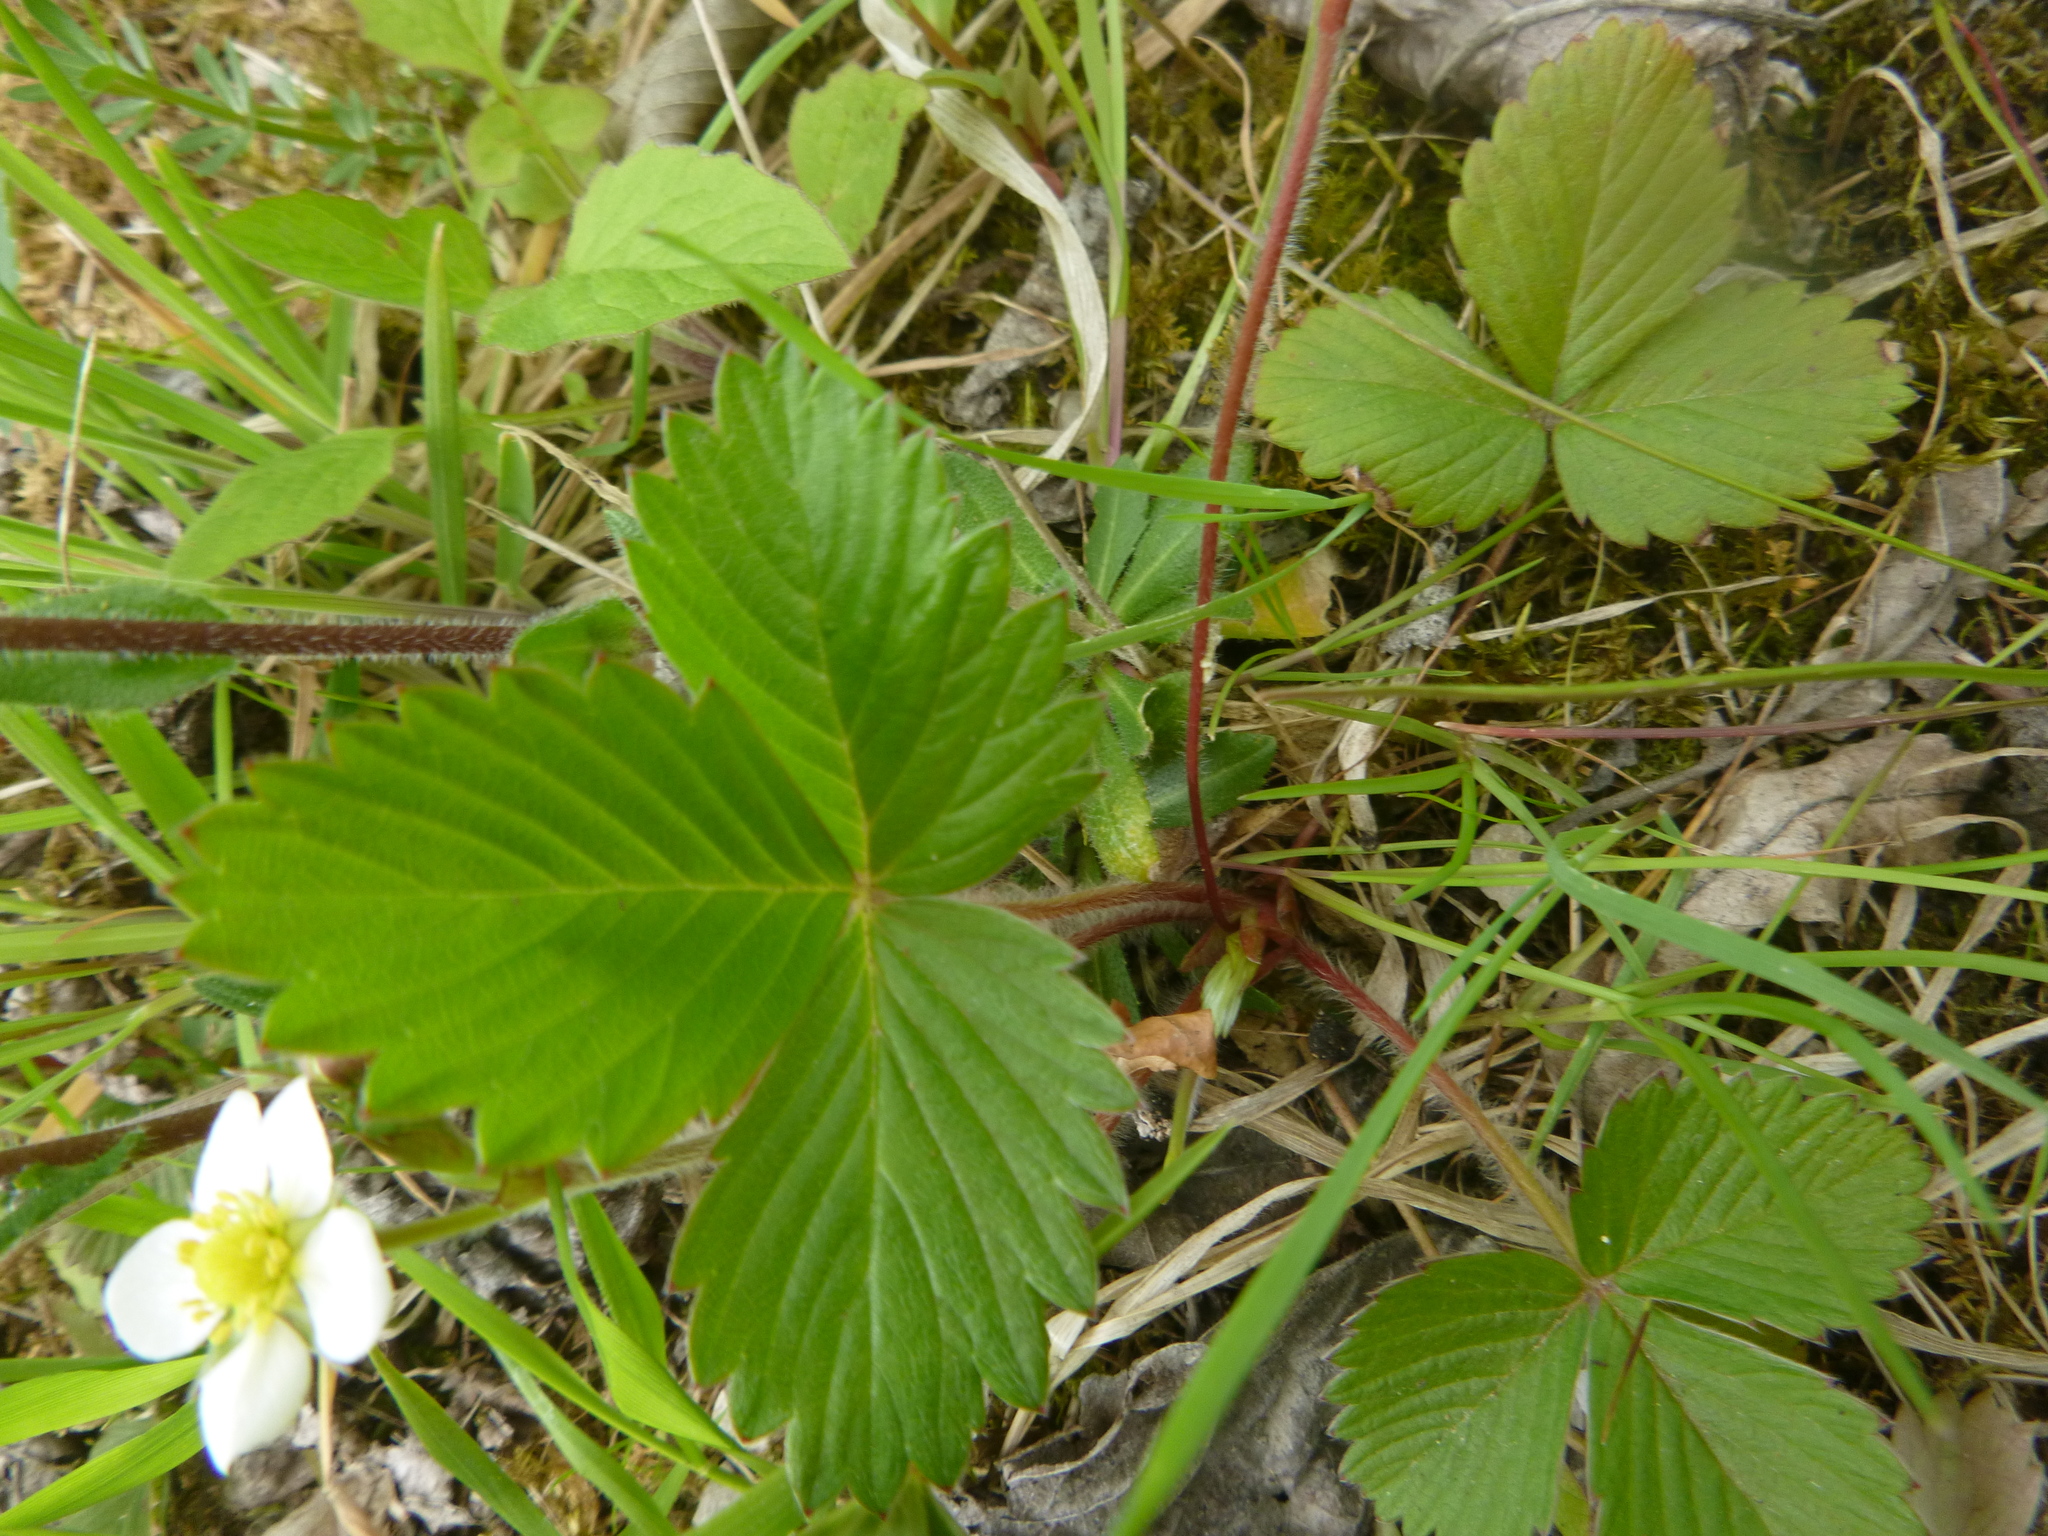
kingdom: Plantae
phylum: Tracheophyta
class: Magnoliopsida
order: Rosales
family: Rosaceae
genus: Fragaria
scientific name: Fragaria vesca
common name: Wild strawberry
